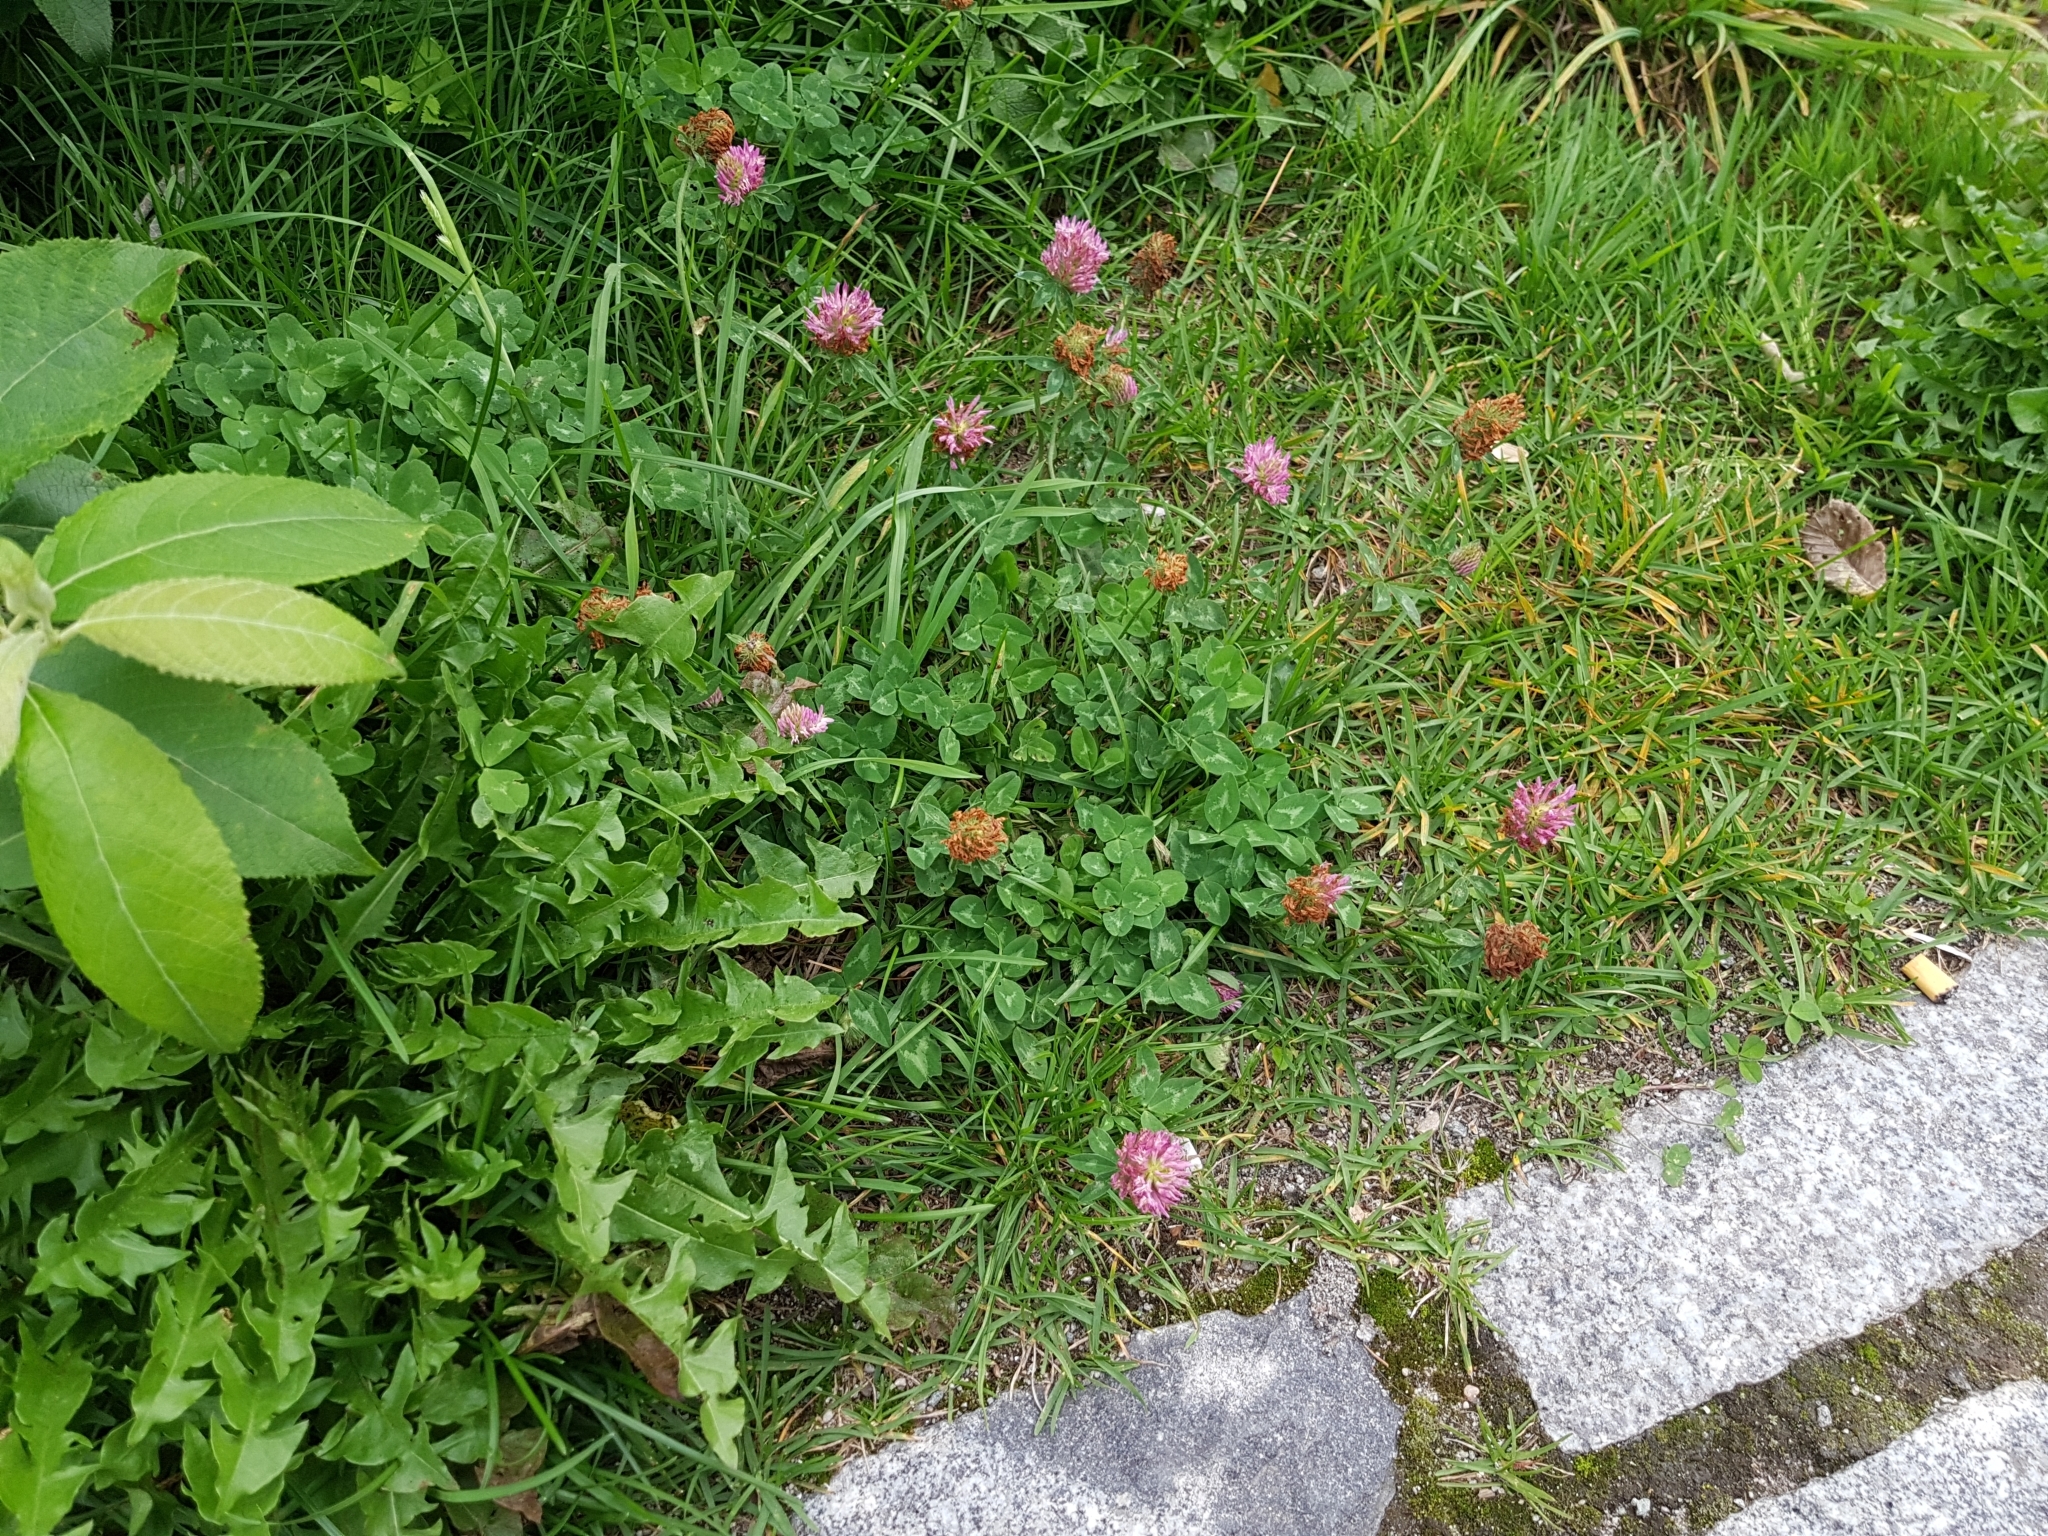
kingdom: Plantae
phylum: Tracheophyta
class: Magnoliopsida
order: Fabales
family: Fabaceae
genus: Trifolium
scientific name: Trifolium pratense
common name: Red clover
